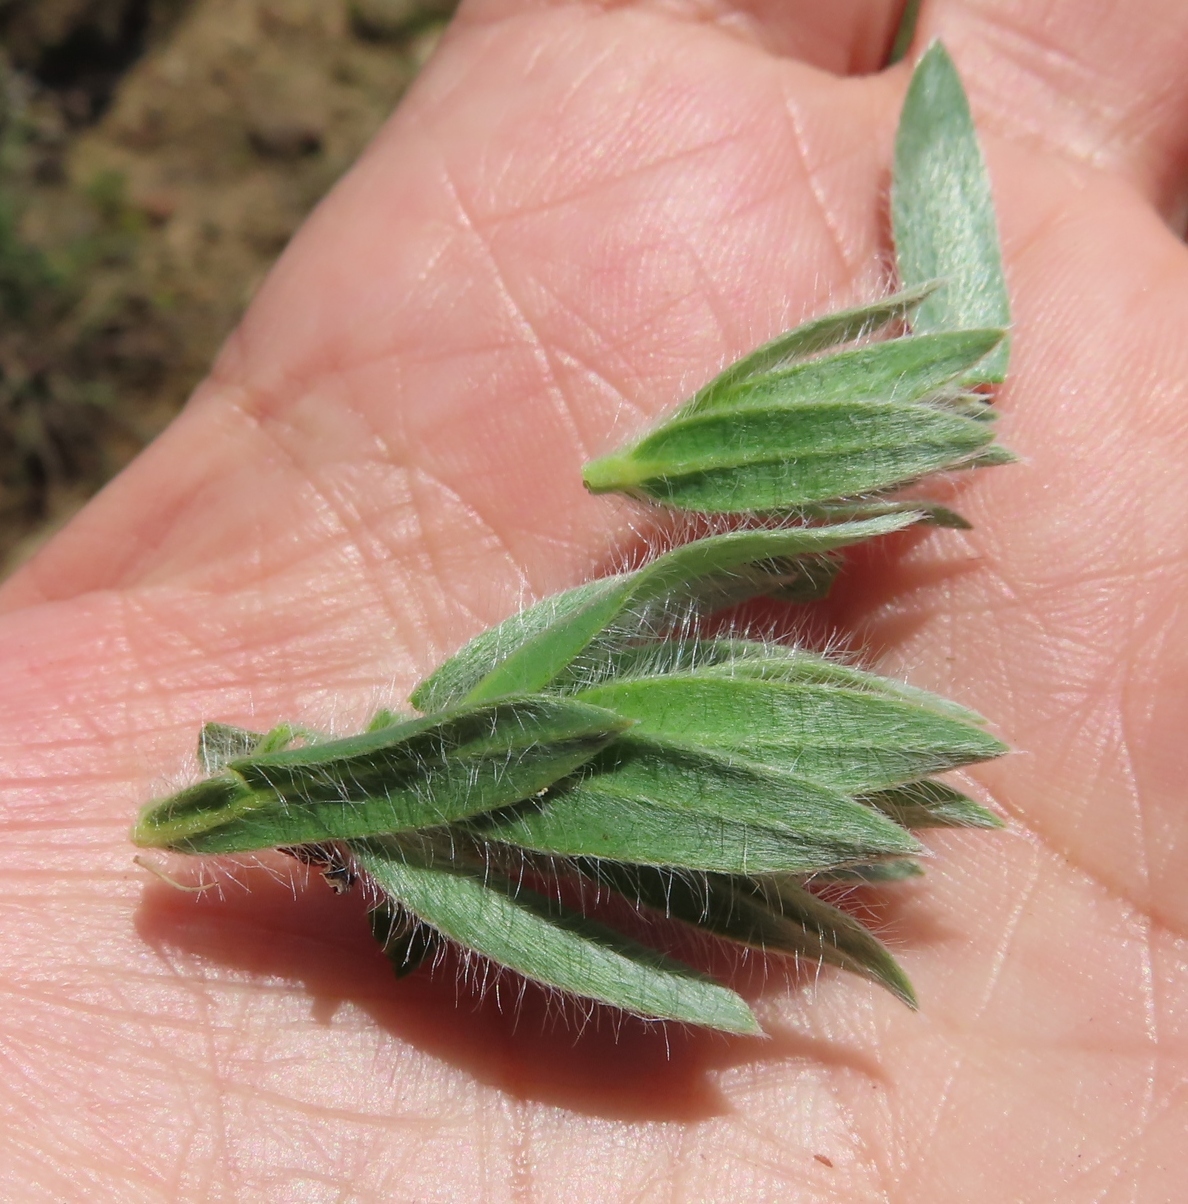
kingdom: Plantae
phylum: Tracheophyta
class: Magnoliopsida
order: Fabales
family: Fabaceae
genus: Xiphotheca
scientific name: Xiphotheca lanceolata
